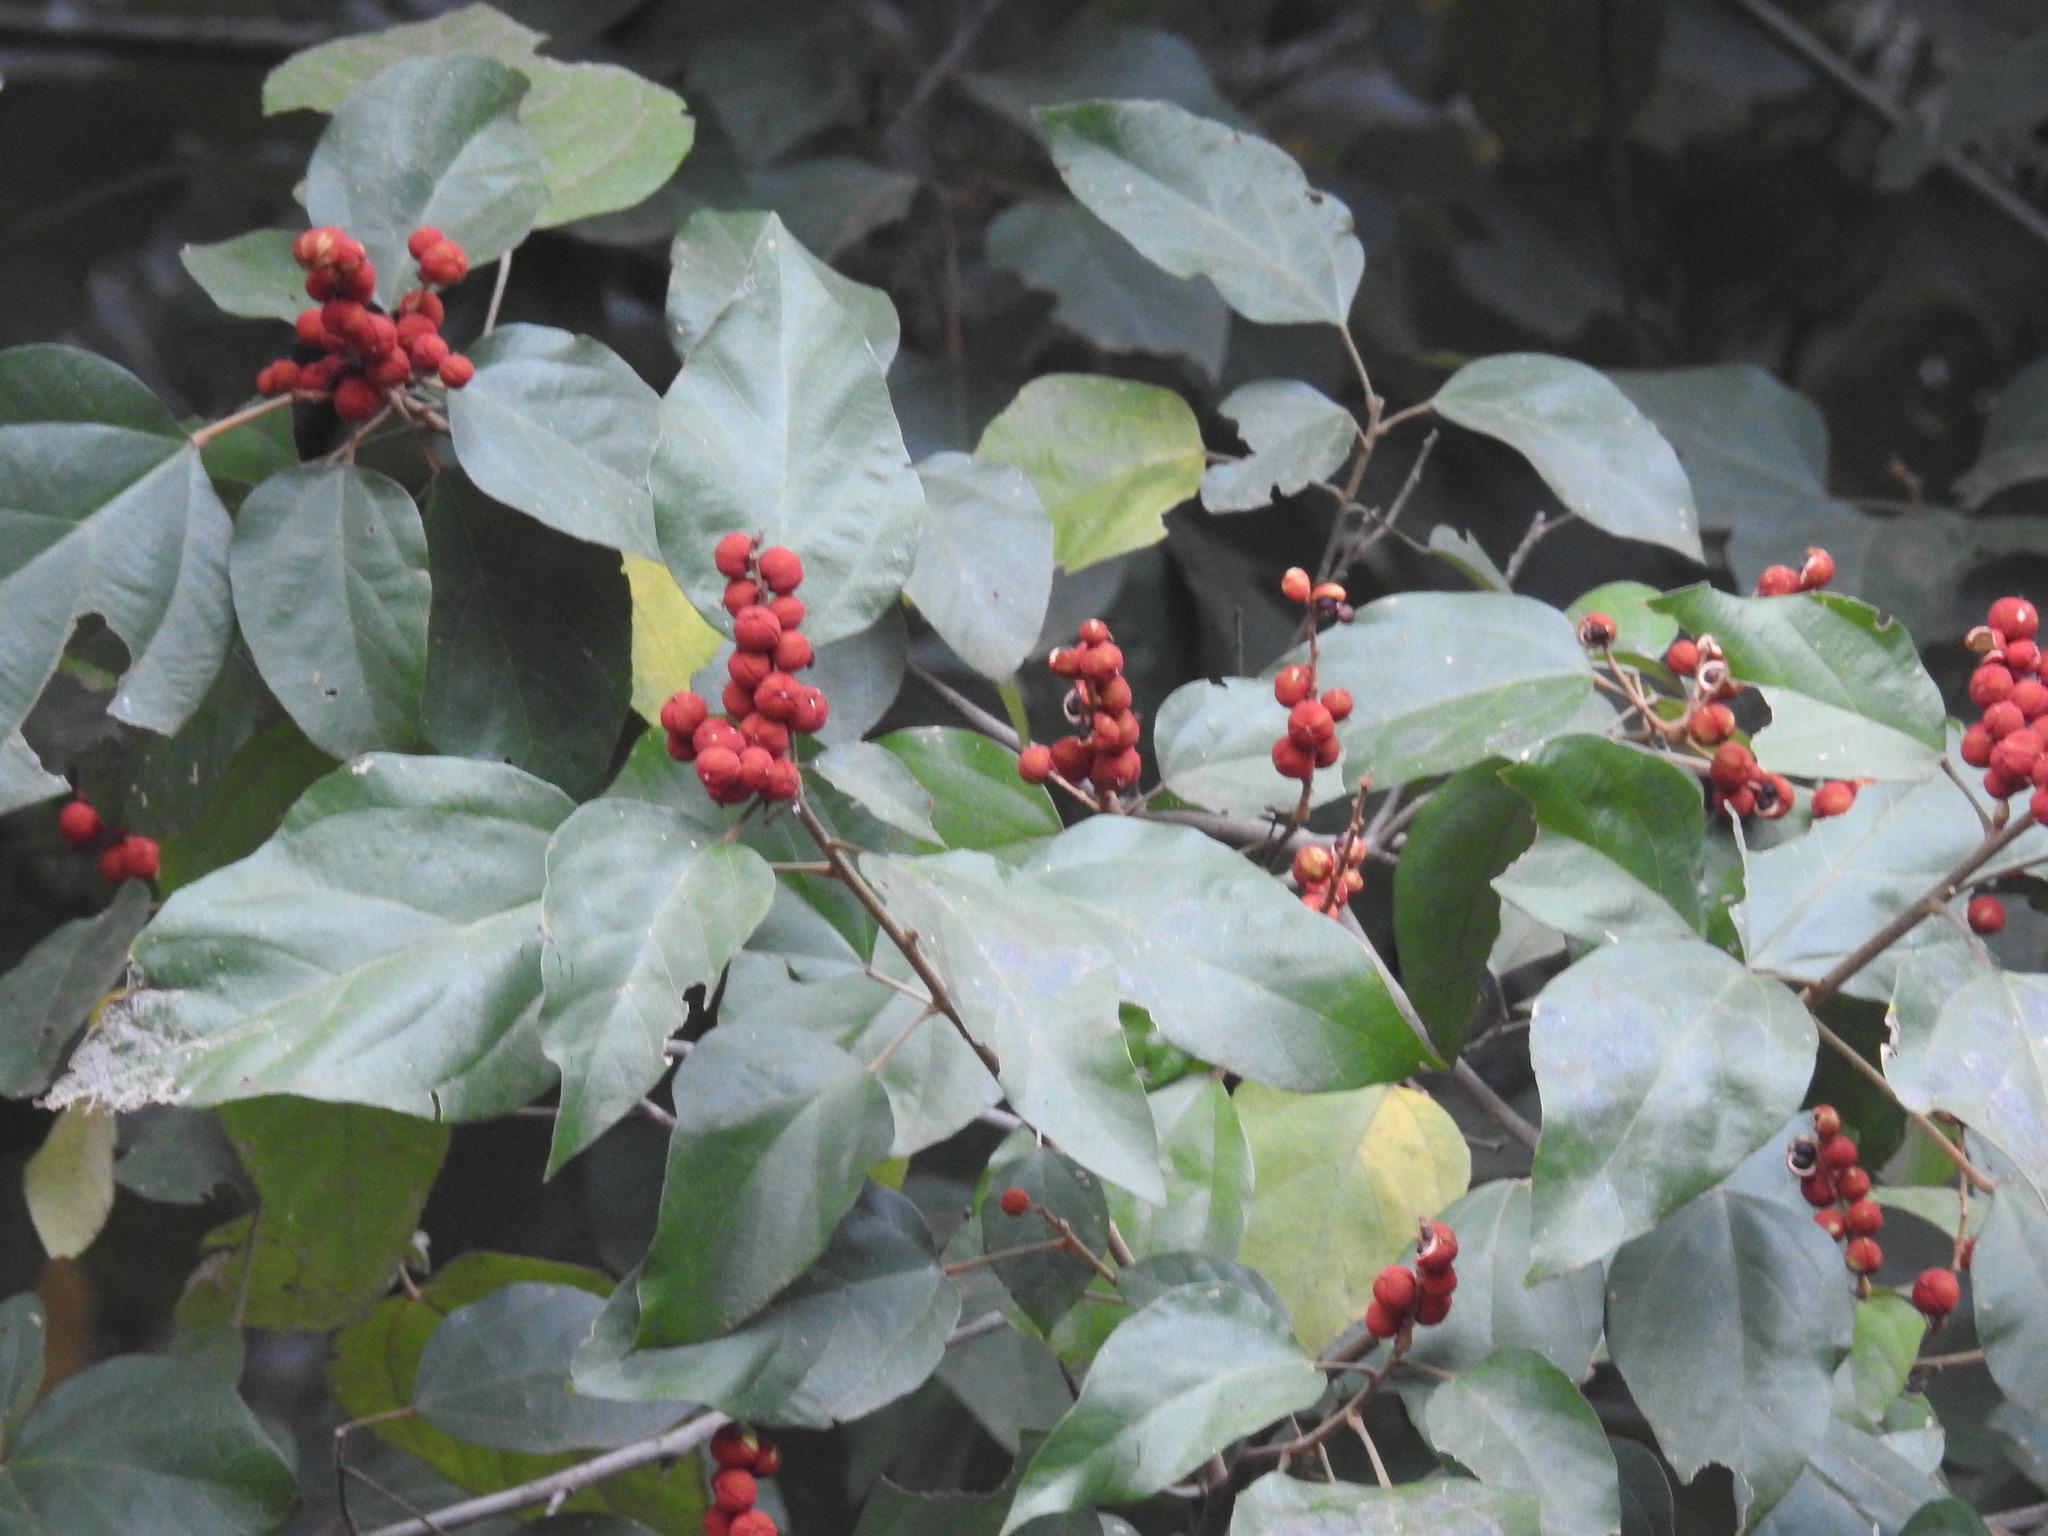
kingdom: Plantae
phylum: Tracheophyta
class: Magnoliopsida
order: Malpighiales
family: Euphorbiaceae
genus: Mallotus
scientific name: Mallotus philippensis
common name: Kamala tree
